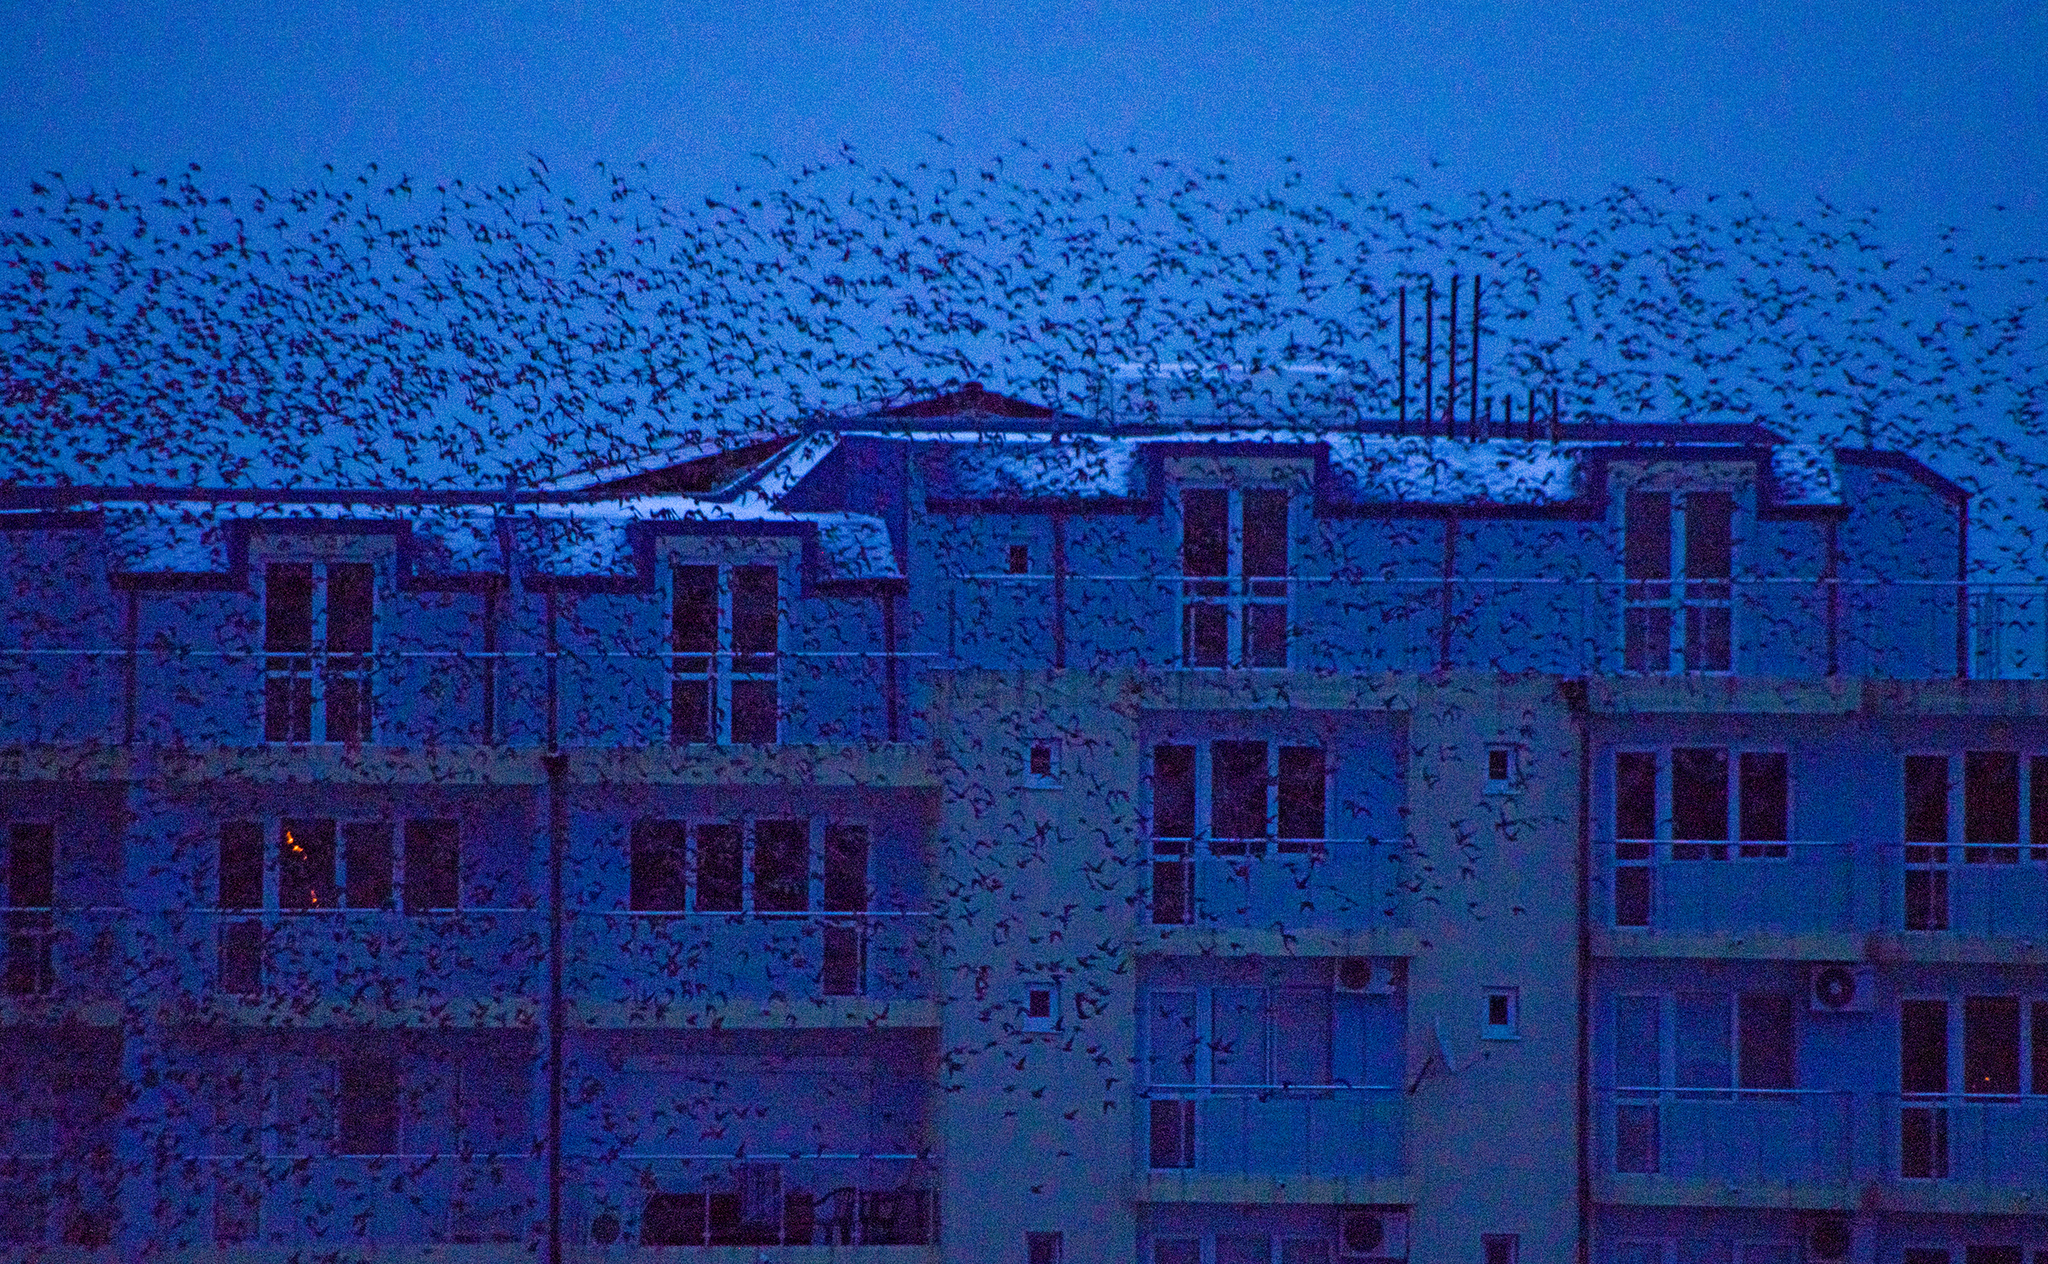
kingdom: Animalia
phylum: Chordata
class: Aves
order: Passeriformes
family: Sturnidae
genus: Sturnus
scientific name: Sturnus vulgaris
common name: Common starling
